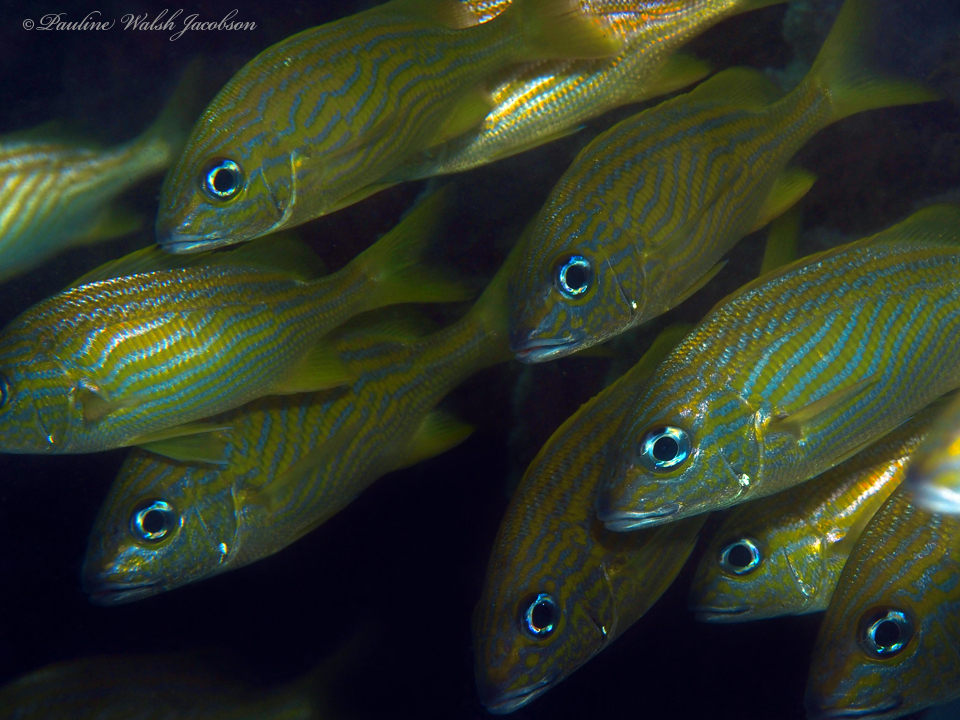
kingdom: Animalia
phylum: Chordata
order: Perciformes
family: Haemulidae
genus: Haemulon
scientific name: Haemulon flavolineatum
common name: French grunt
